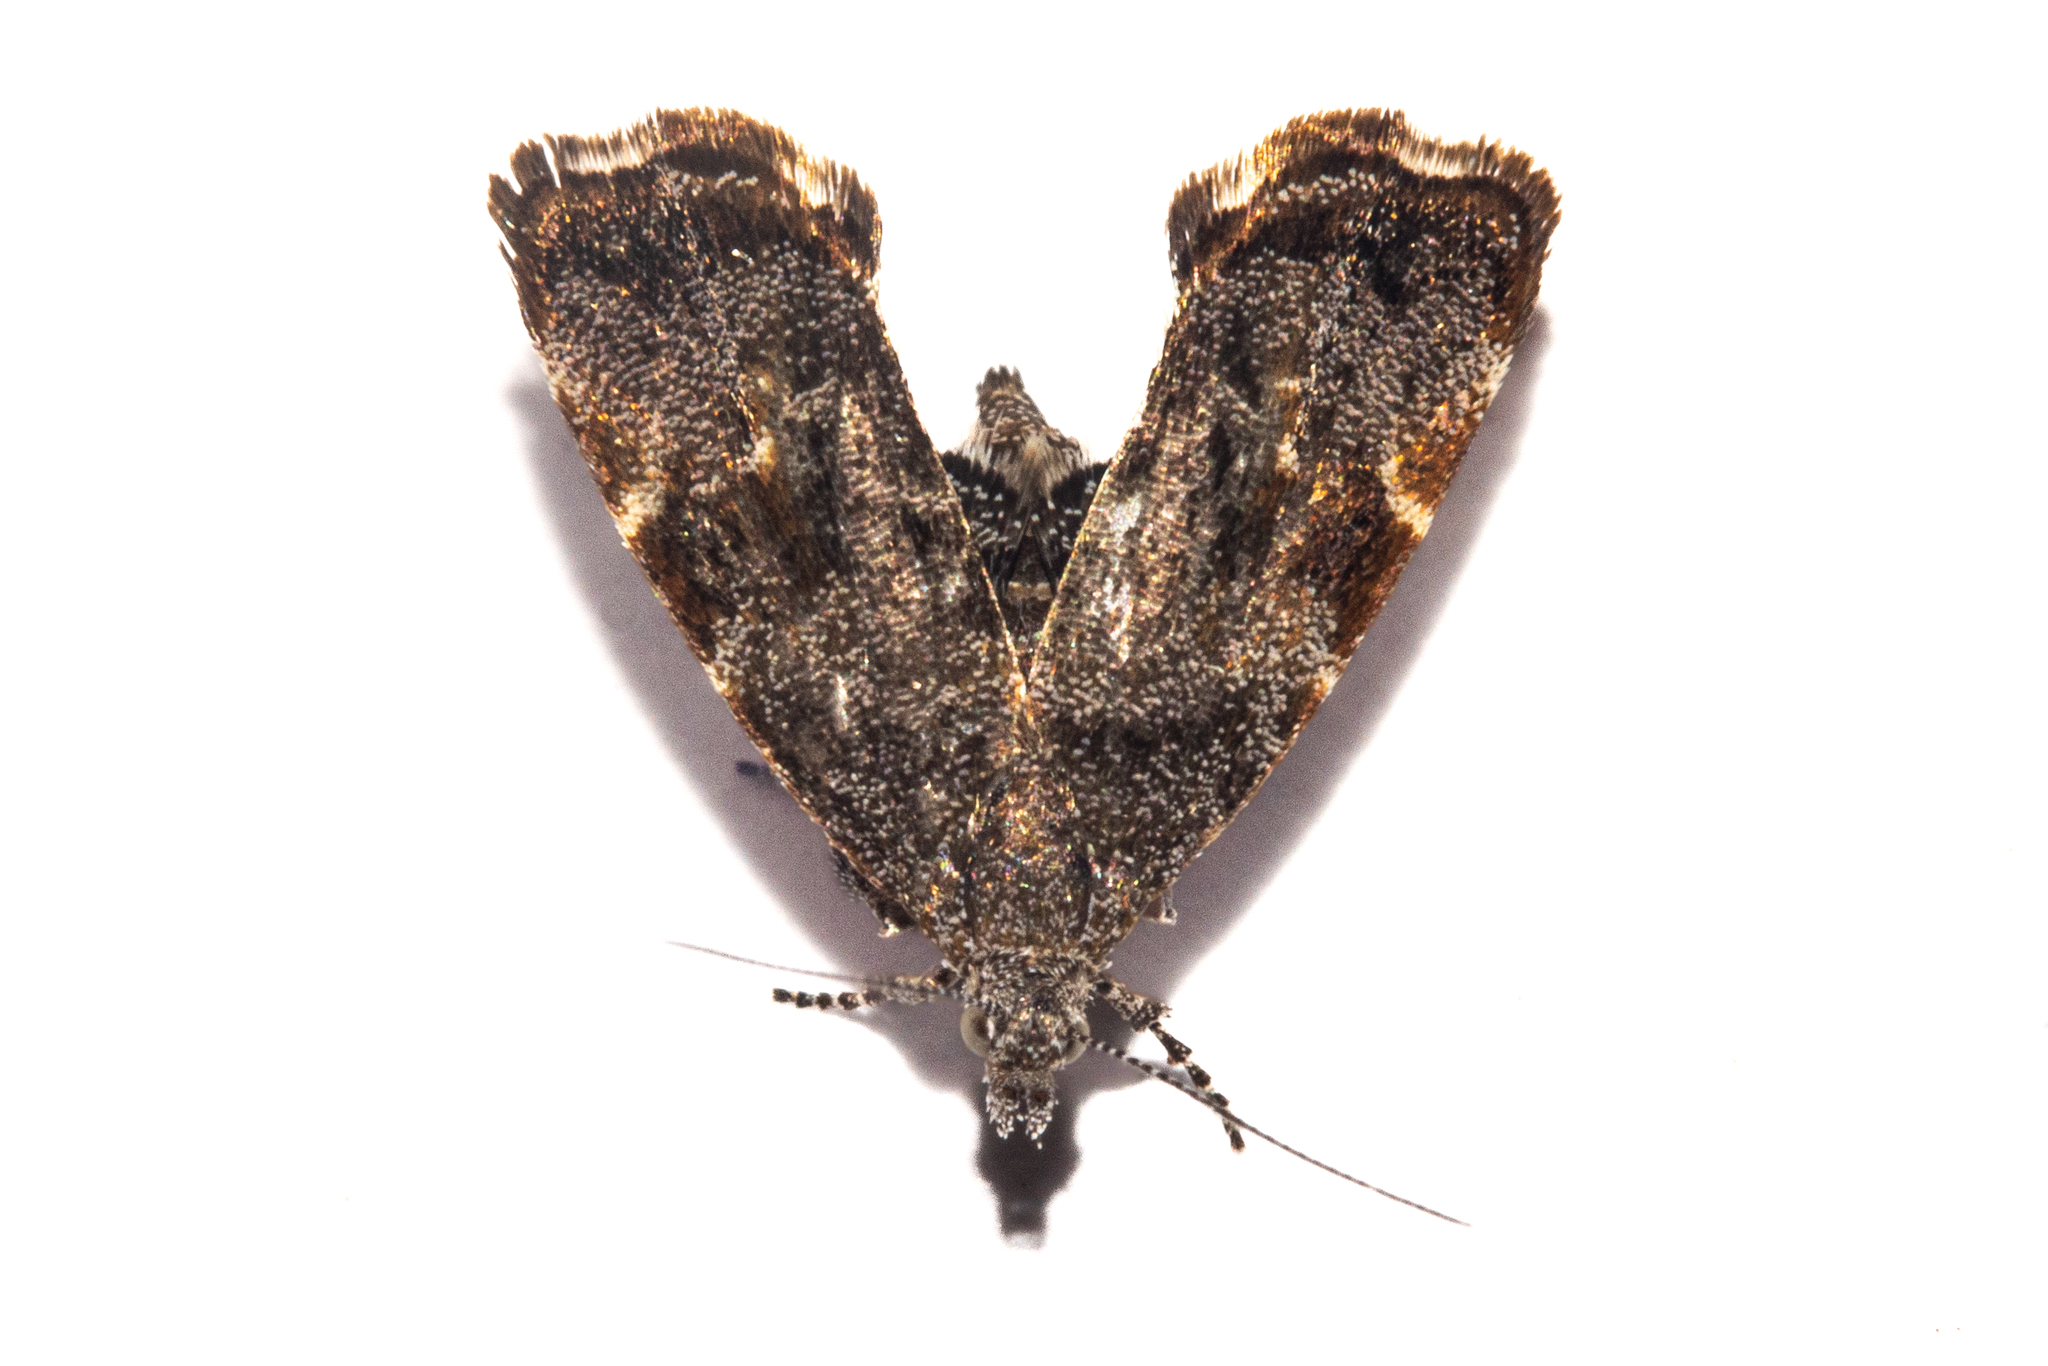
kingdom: Animalia
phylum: Arthropoda
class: Insecta
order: Lepidoptera
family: Choreutidae
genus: Asterivora
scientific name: Asterivora colpota
